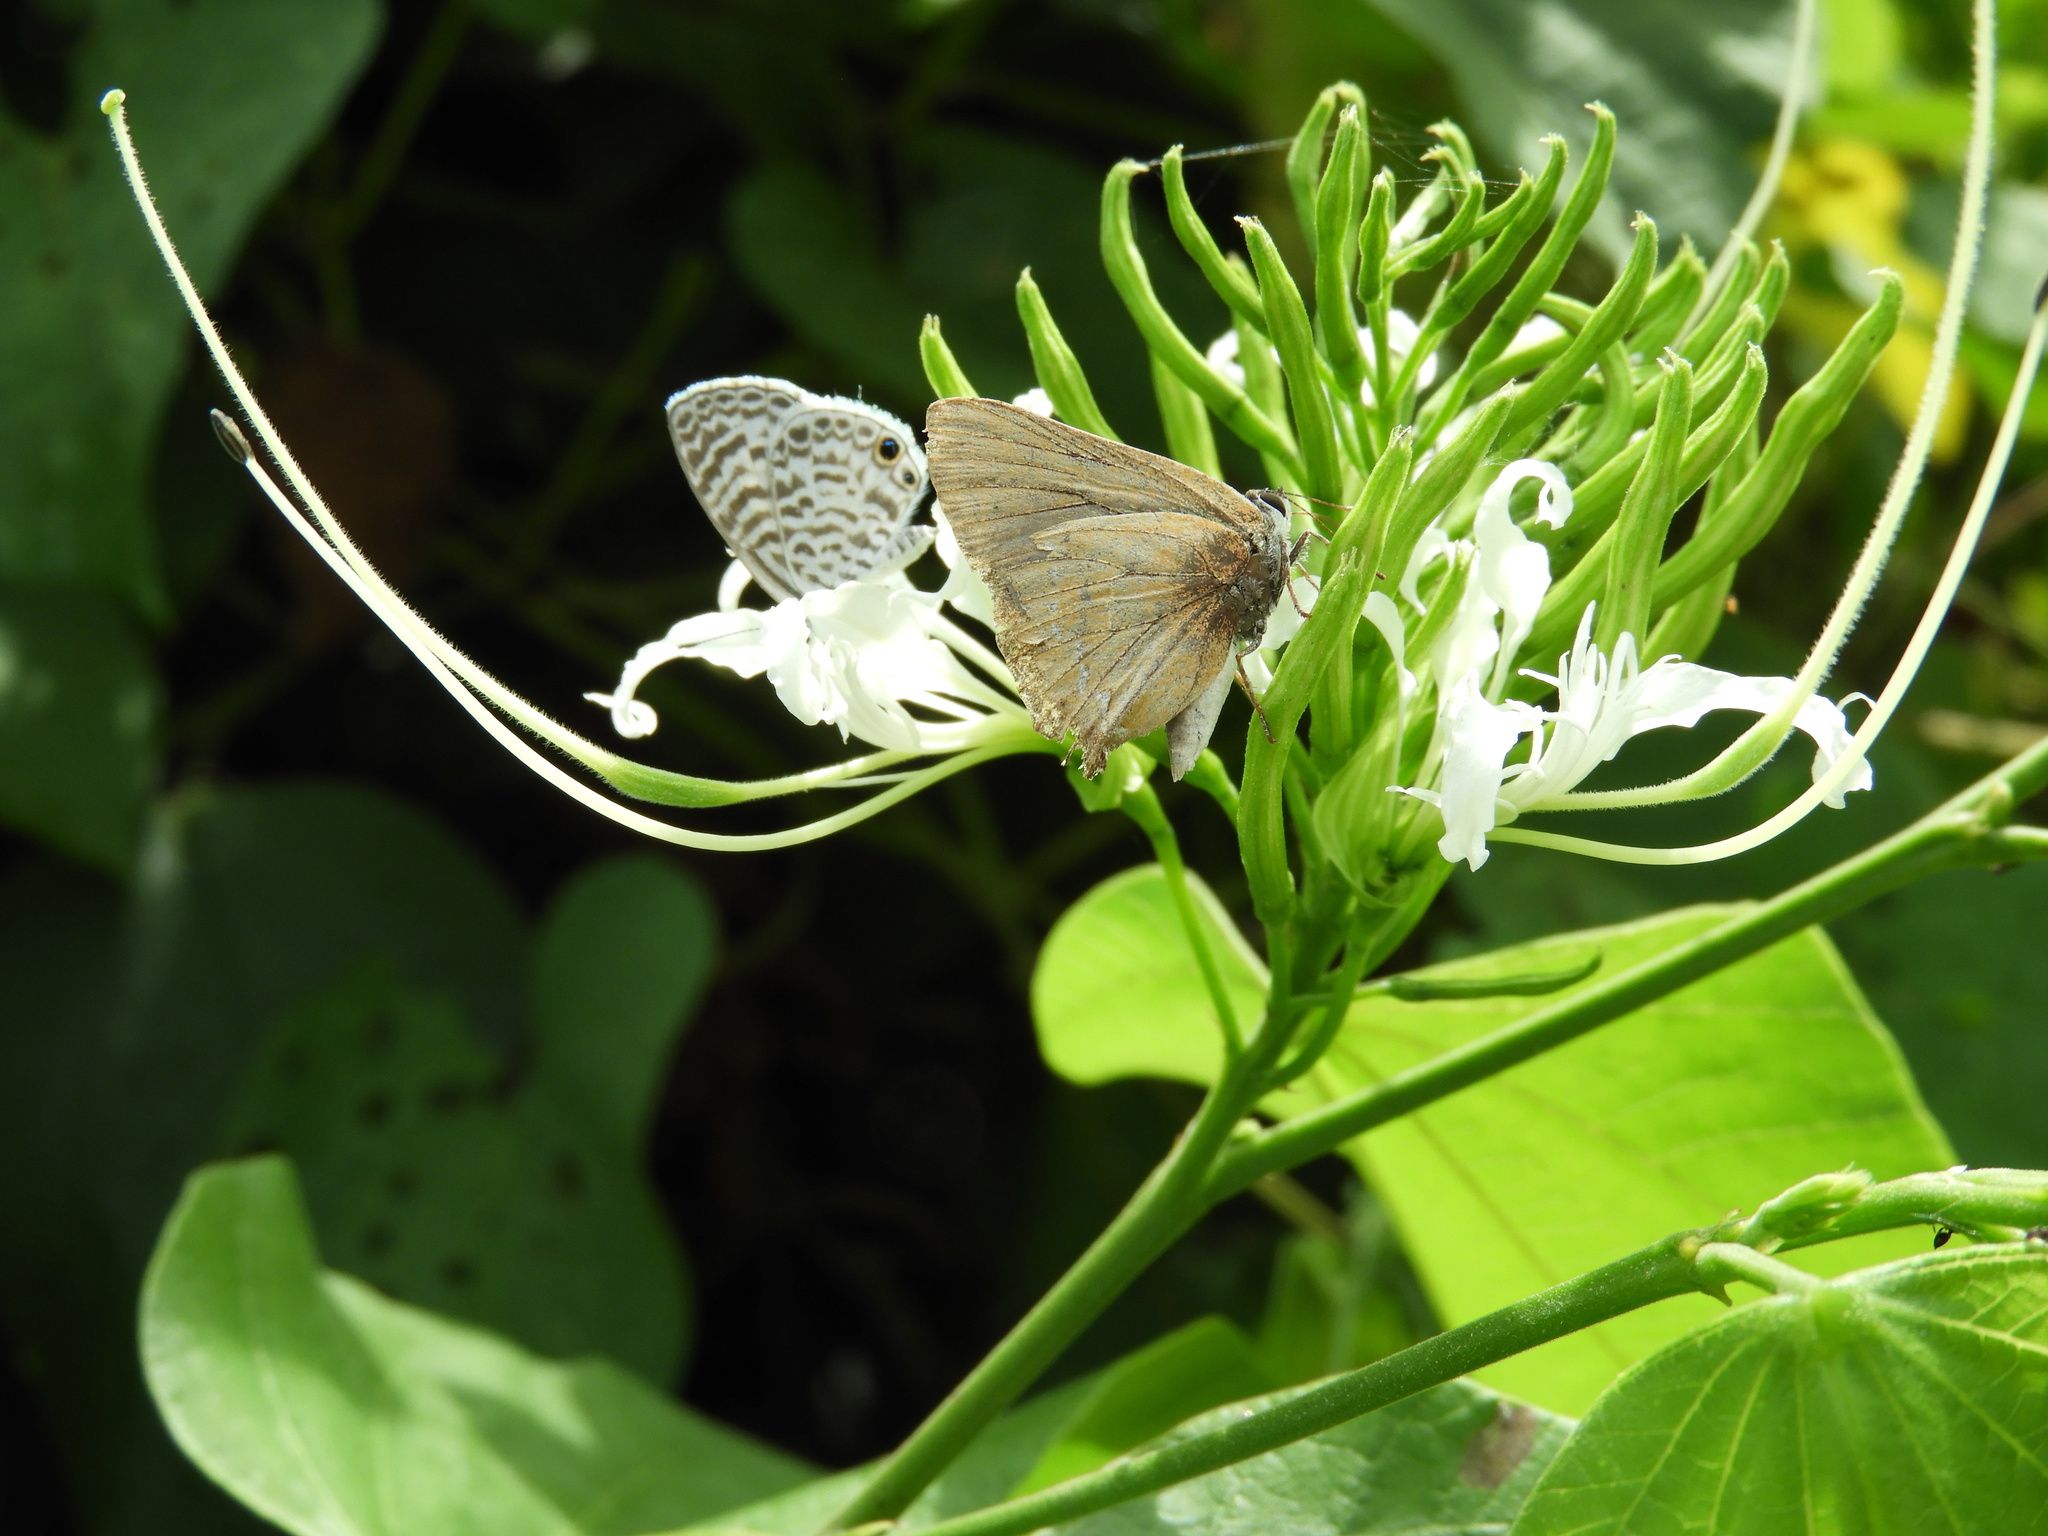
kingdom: Animalia
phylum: Arthropoda
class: Insecta
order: Lepidoptera
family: Lycaenidae
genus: Leptotes
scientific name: Leptotes cassius
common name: Cassius blue
